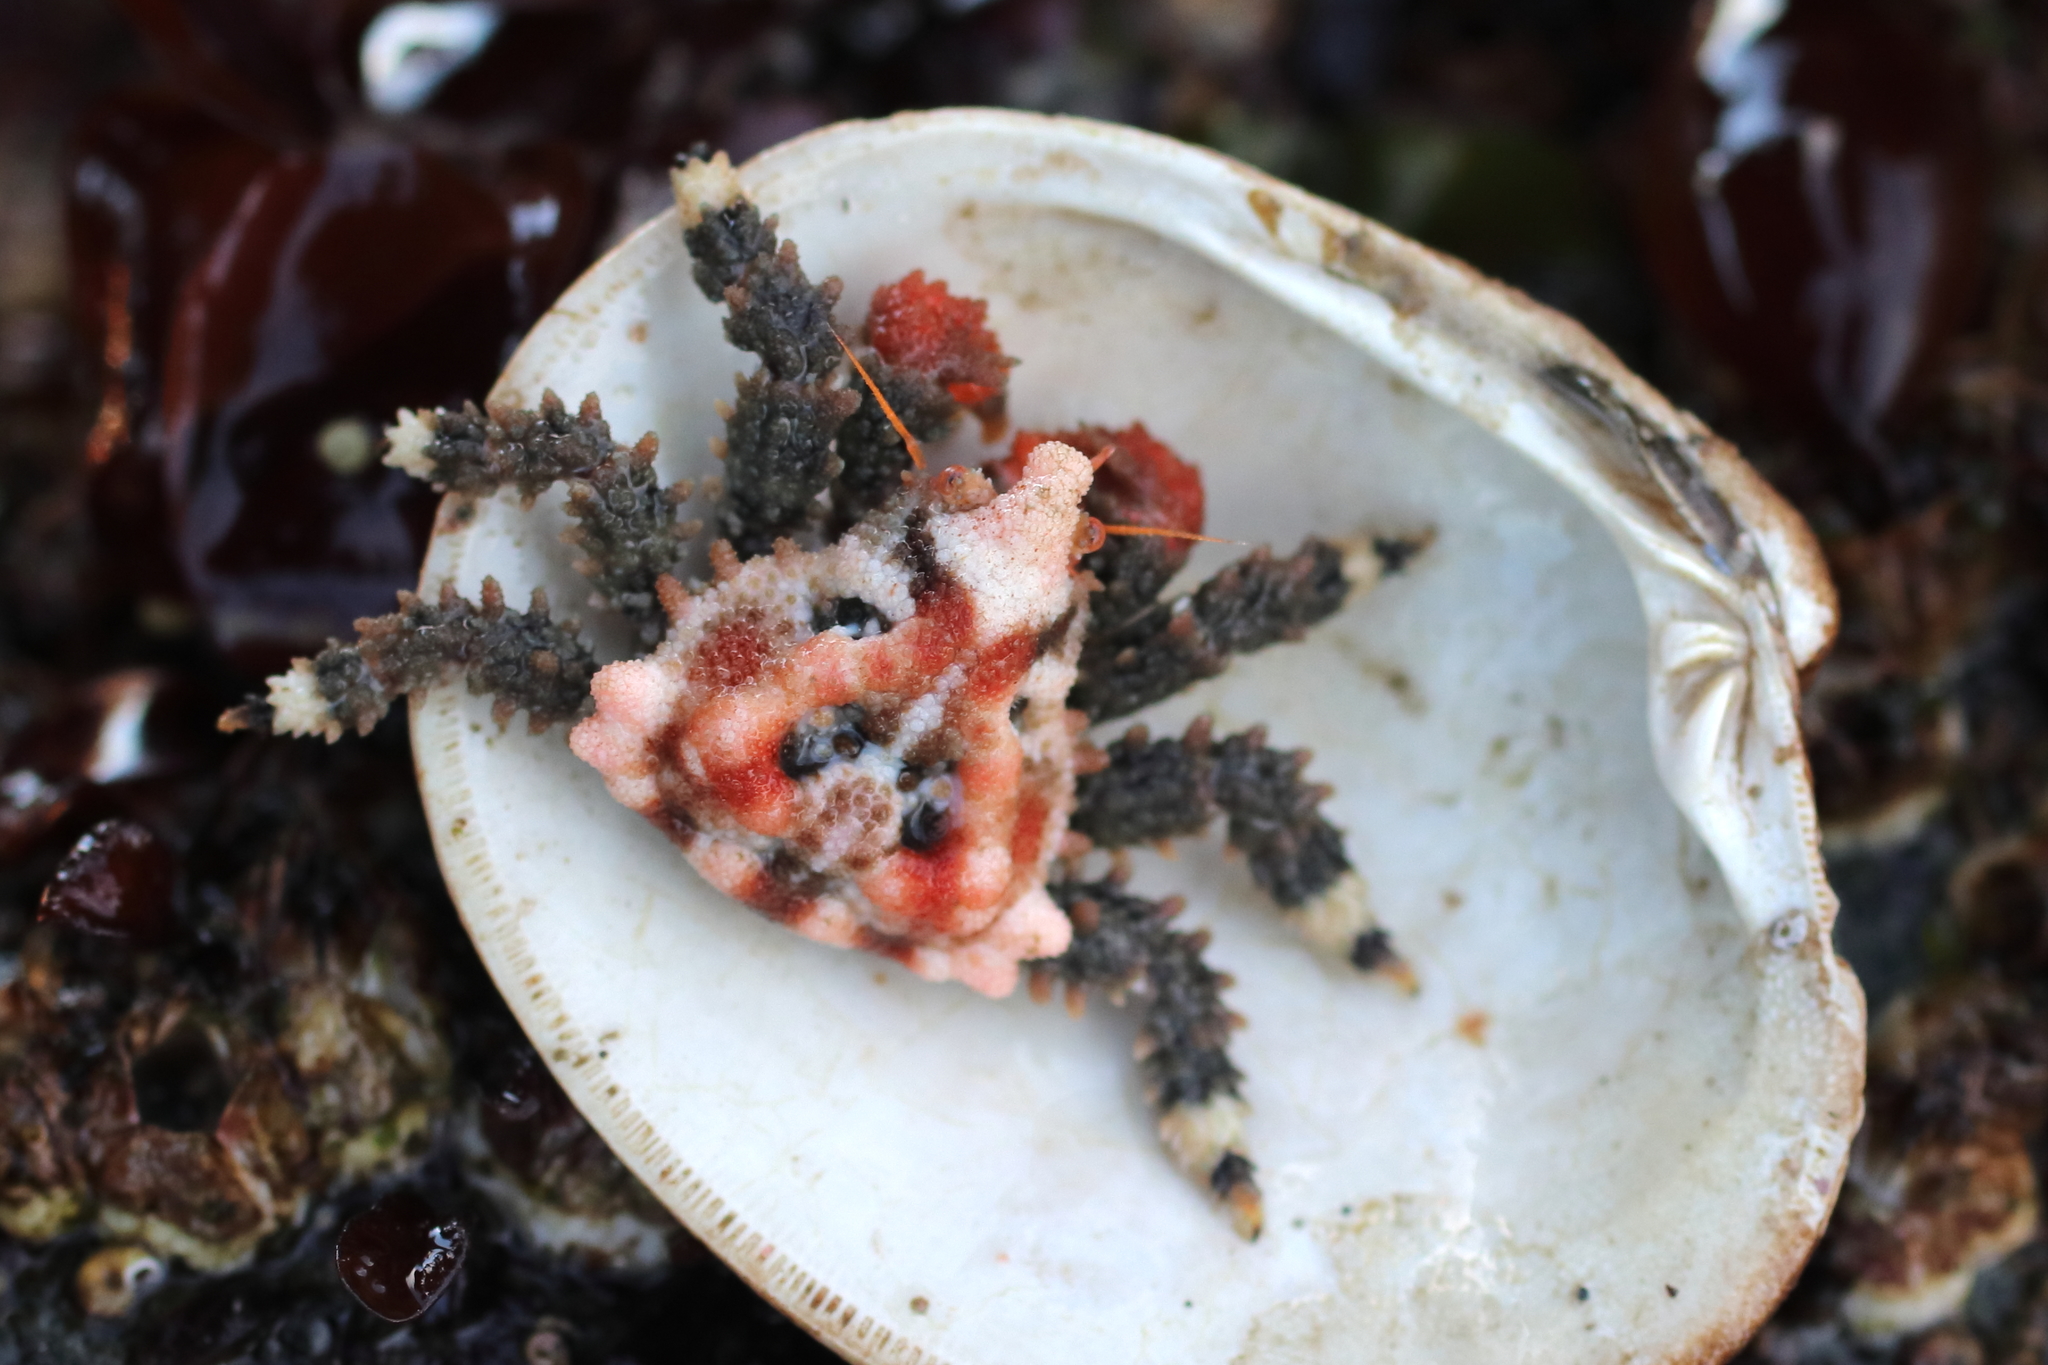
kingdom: Animalia
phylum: Arthropoda
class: Malacostraca
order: Decapoda
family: Lithodidae
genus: Phyllolithodes
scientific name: Phyllolithodes papillosus
